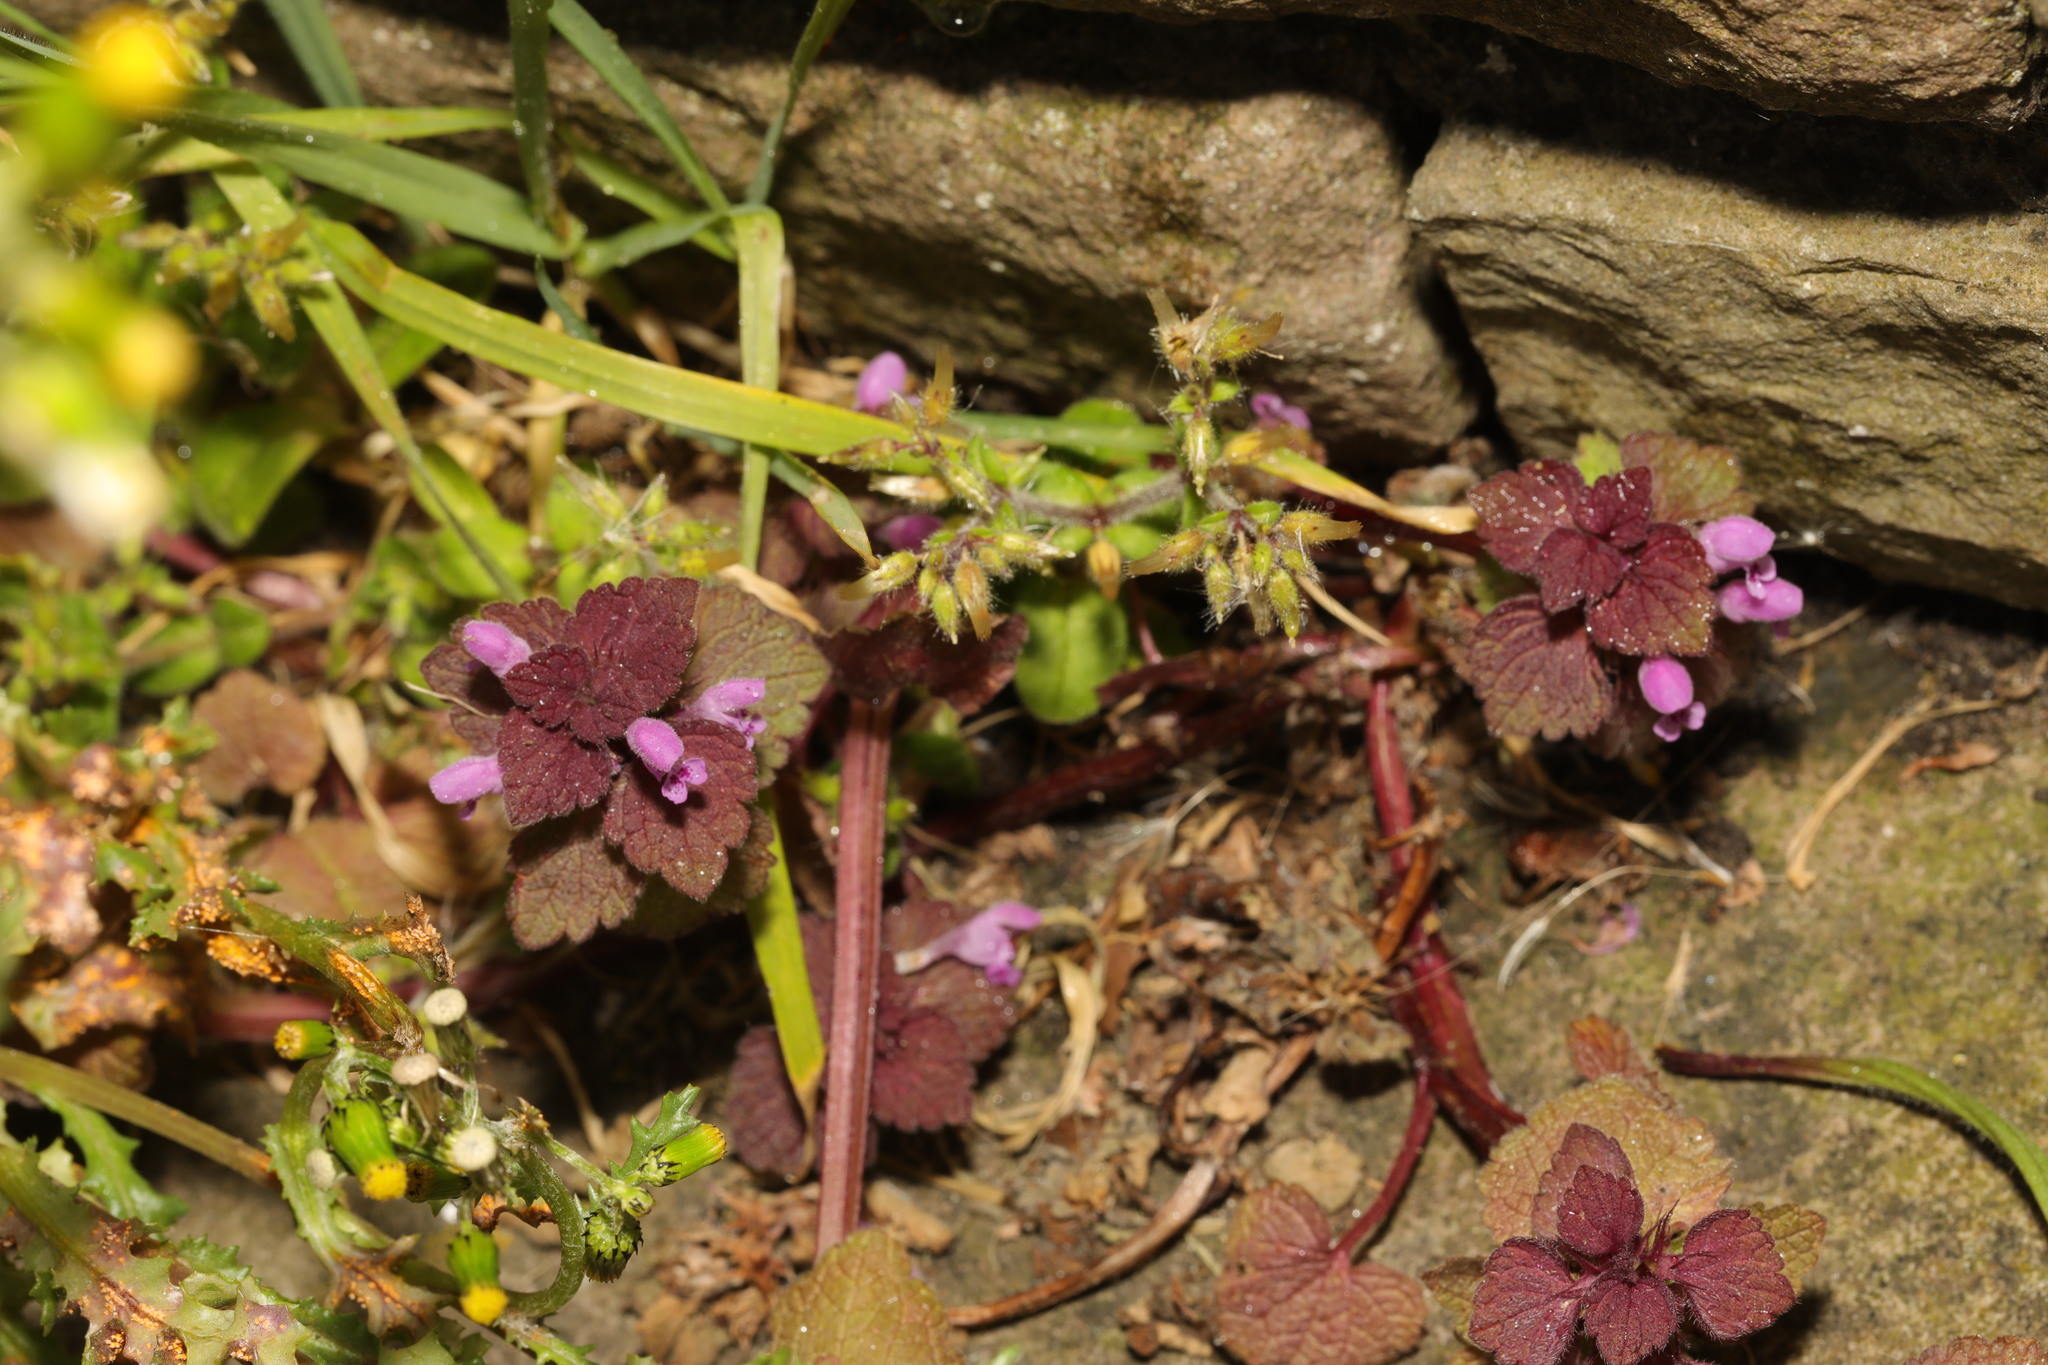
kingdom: Plantae
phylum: Tracheophyta
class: Magnoliopsida
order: Lamiales
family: Lamiaceae
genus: Lamium
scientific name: Lamium purpureum
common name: Red dead-nettle
